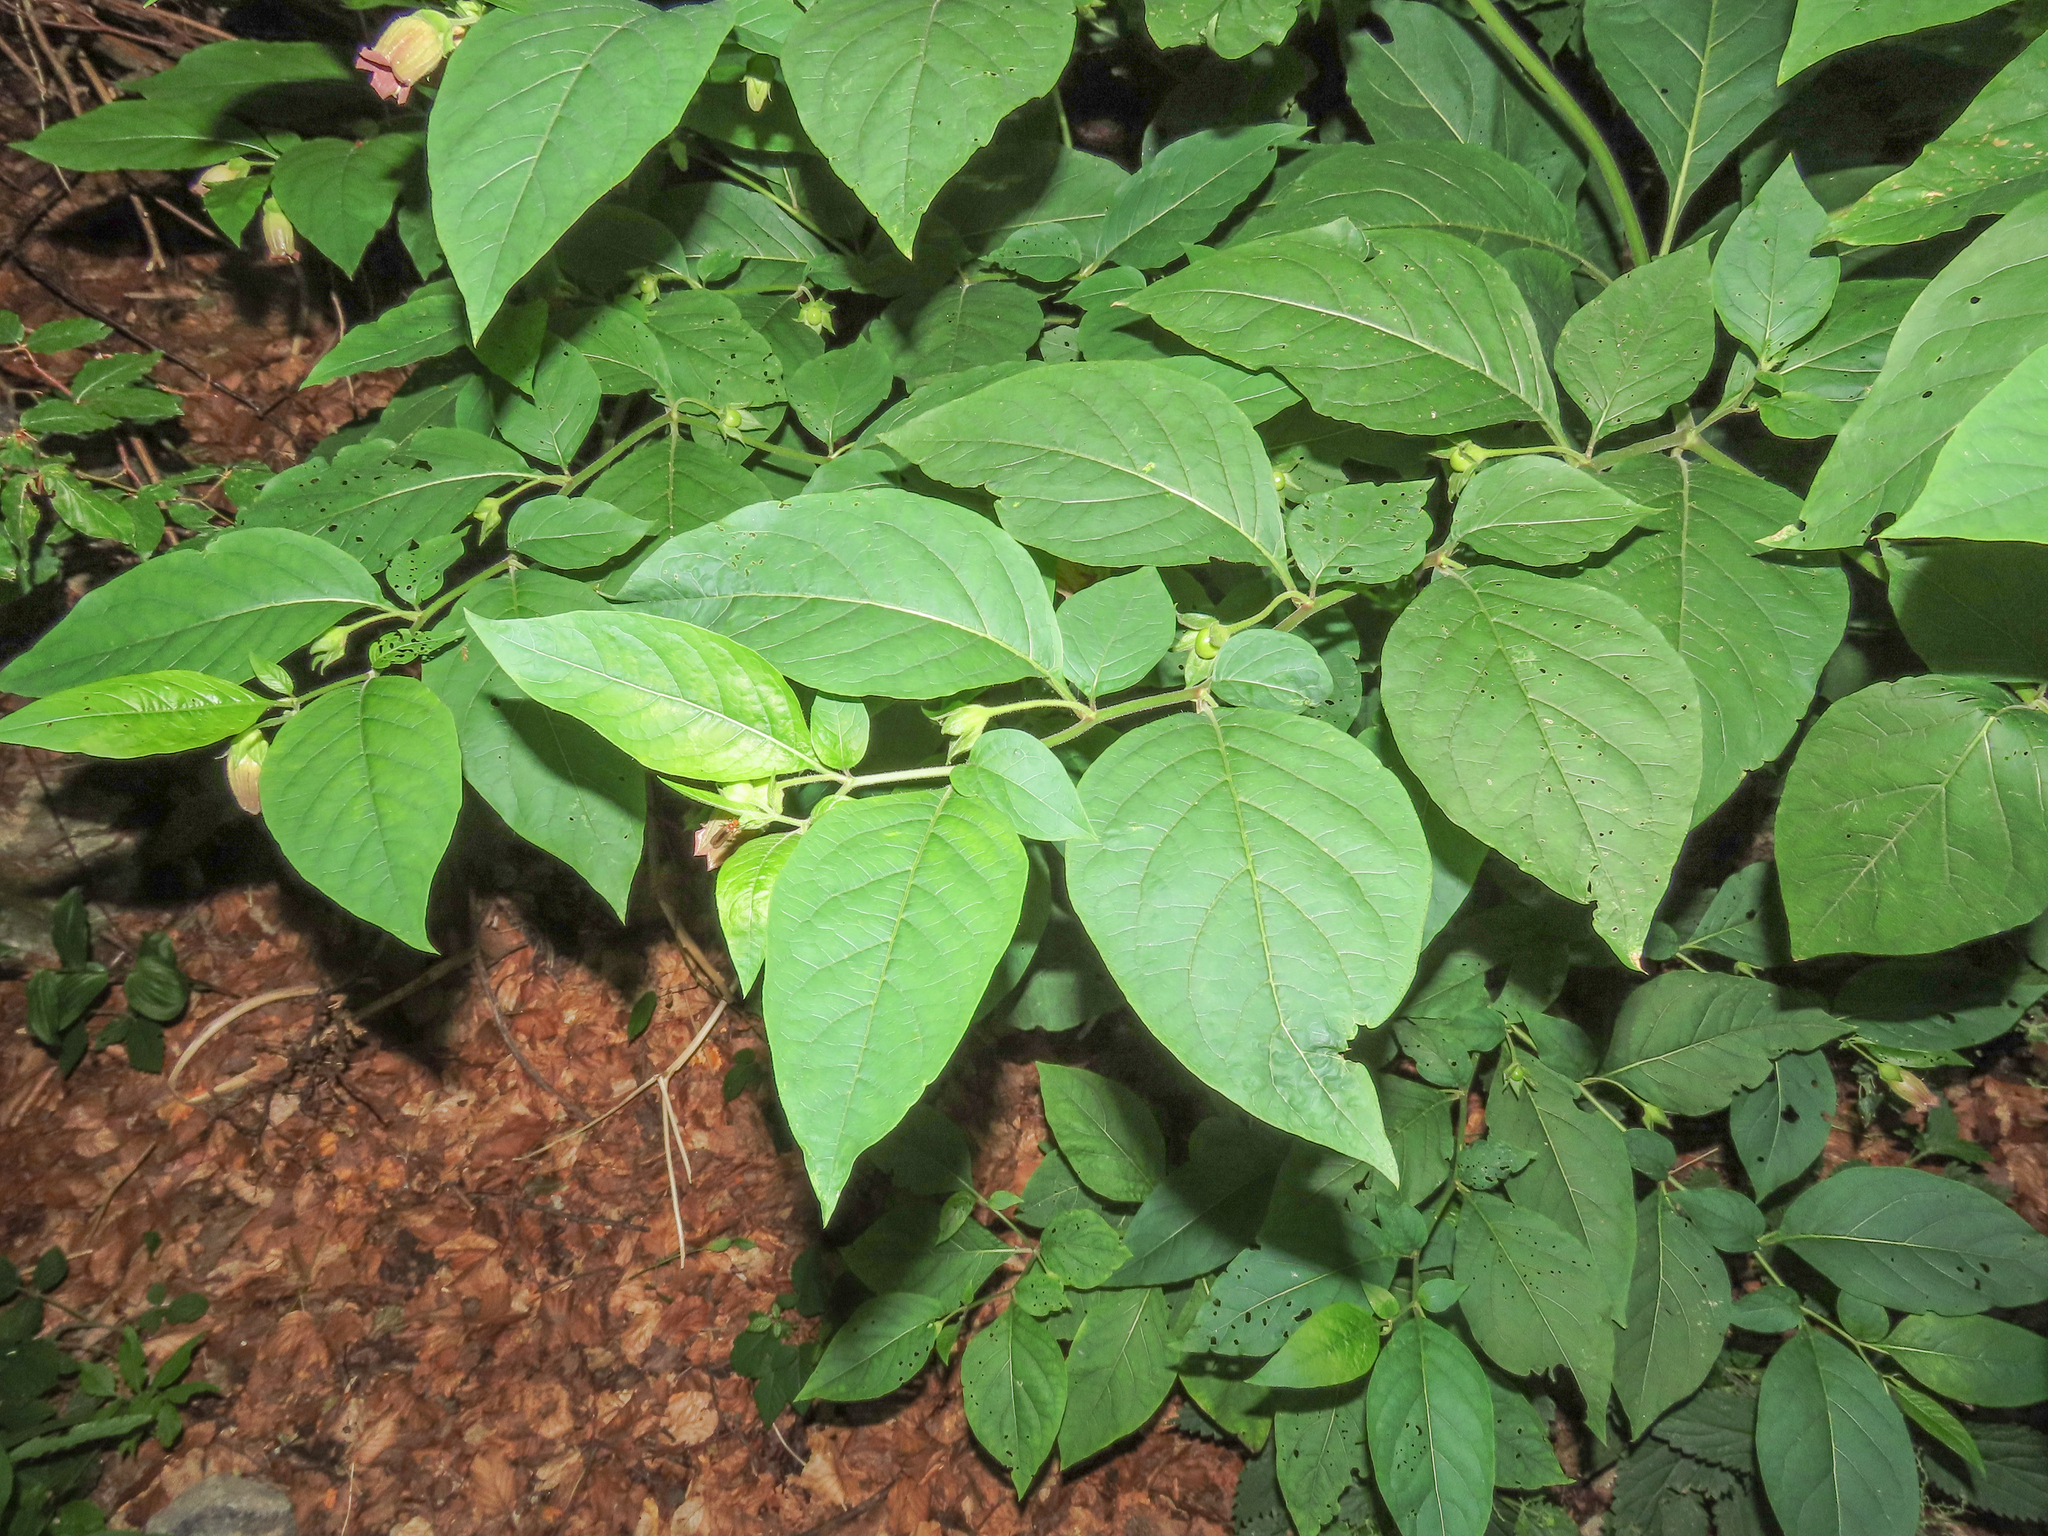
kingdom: Plantae
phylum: Tracheophyta
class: Magnoliopsida
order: Solanales
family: Solanaceae
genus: Atropa
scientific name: Atropa belladonna
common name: Deadly nightshade
